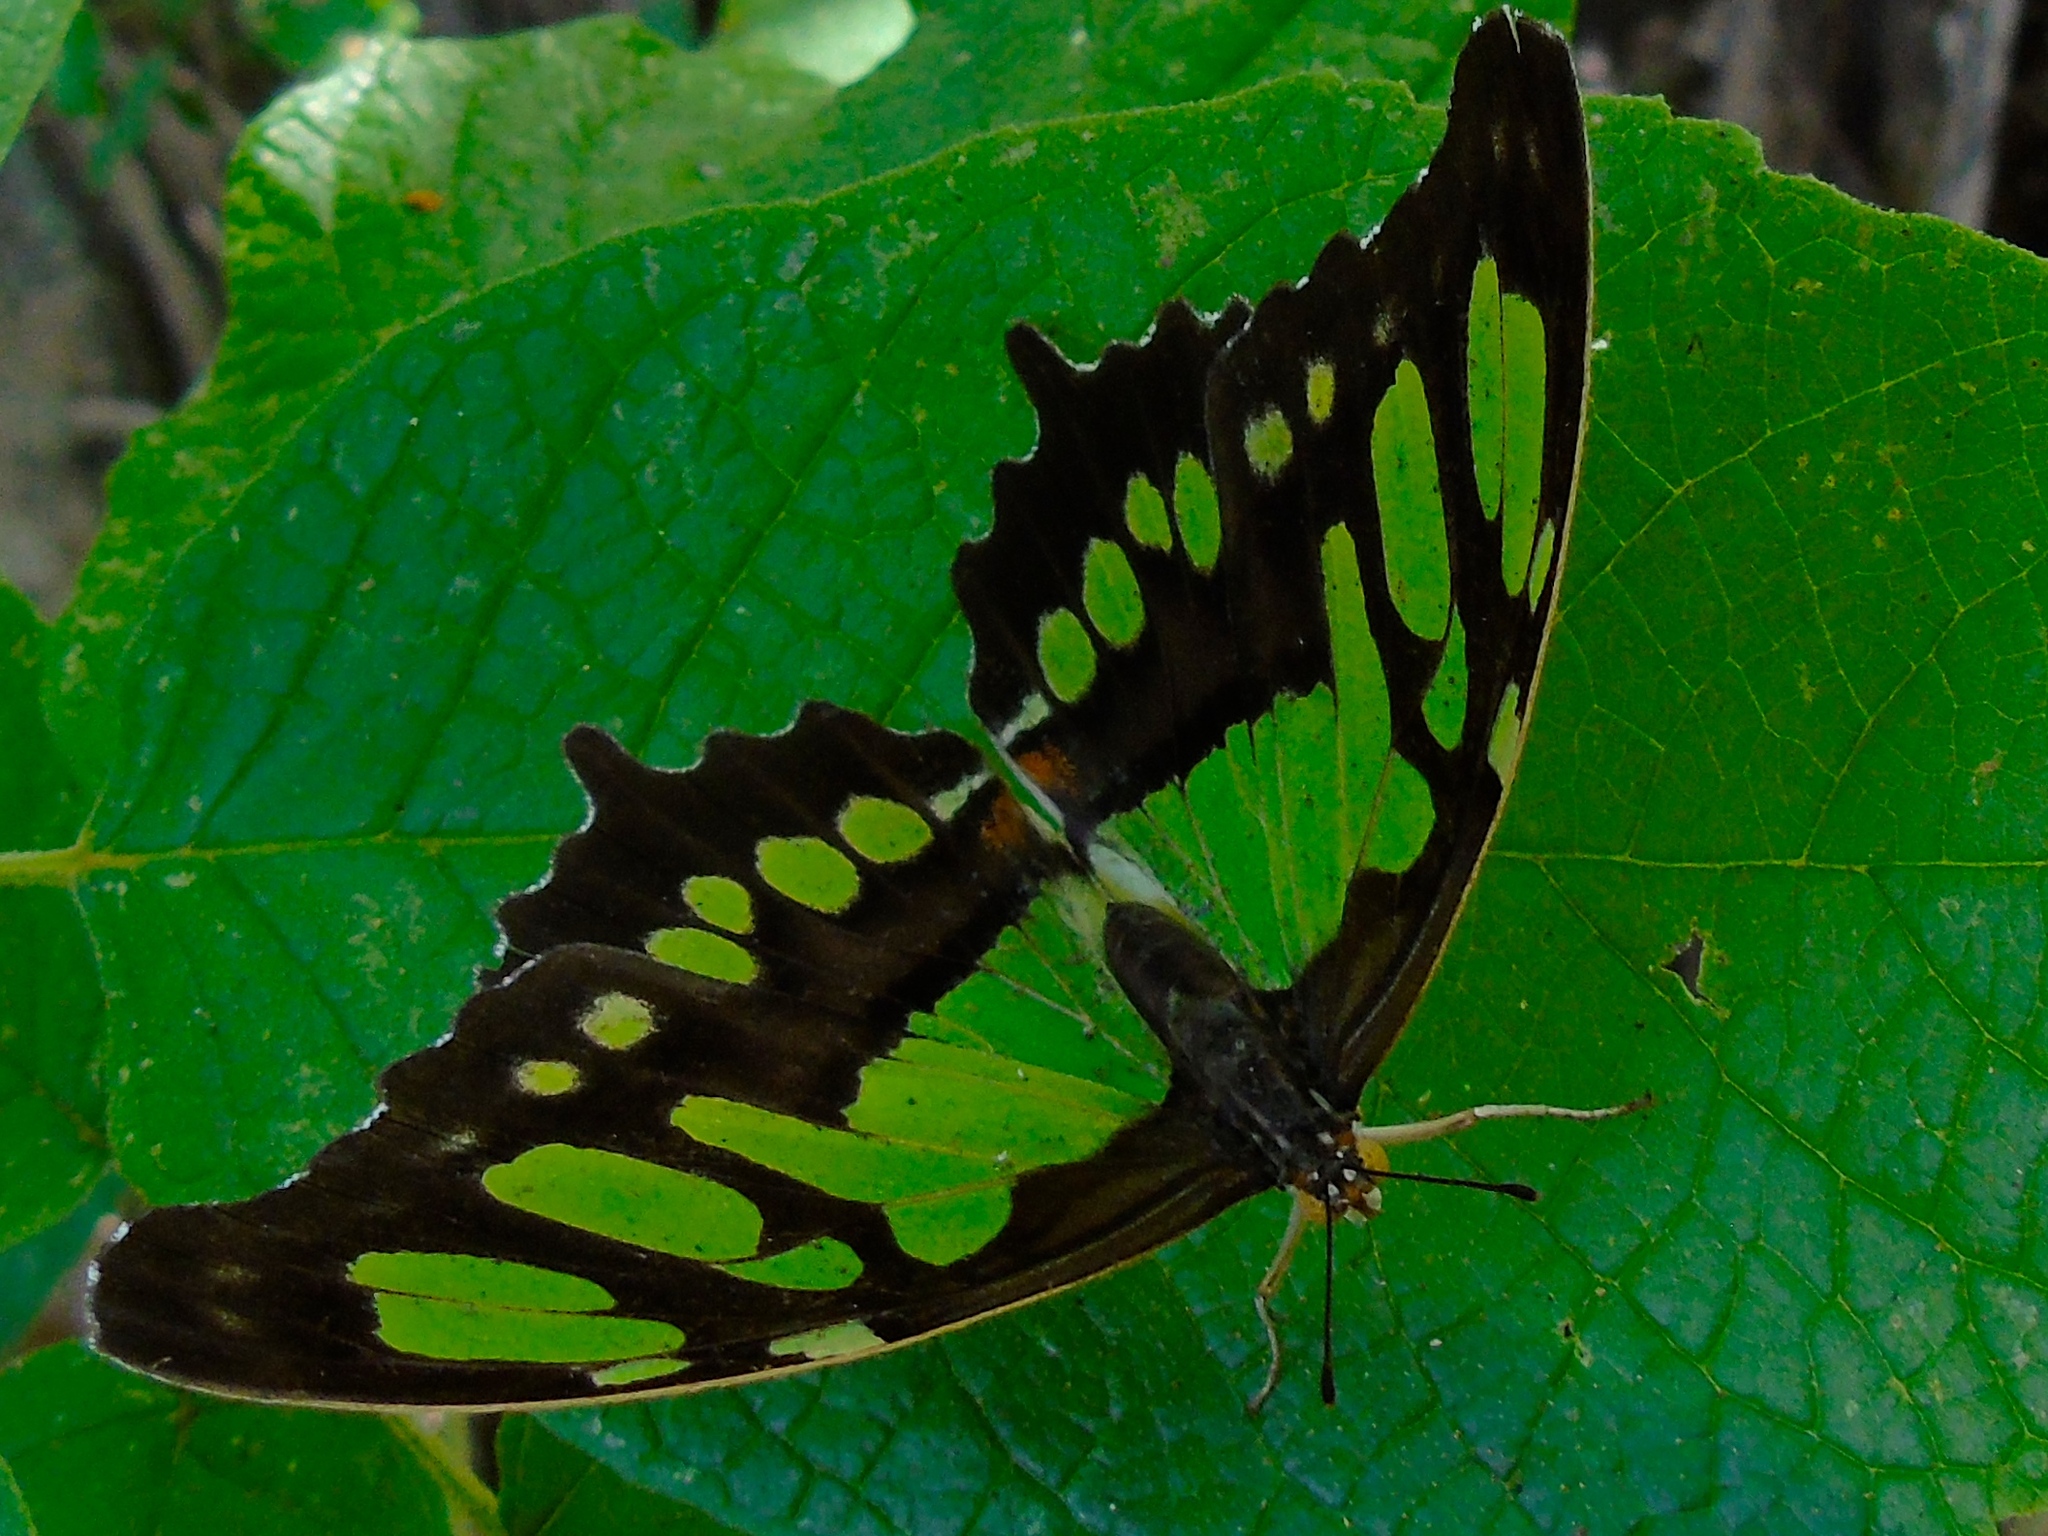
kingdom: Animalia
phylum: Arthropoda
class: Insecta
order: Lepidoptera
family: Nymphalidae
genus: Siproeta
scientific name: Siproeta stelenes
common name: Malachite
